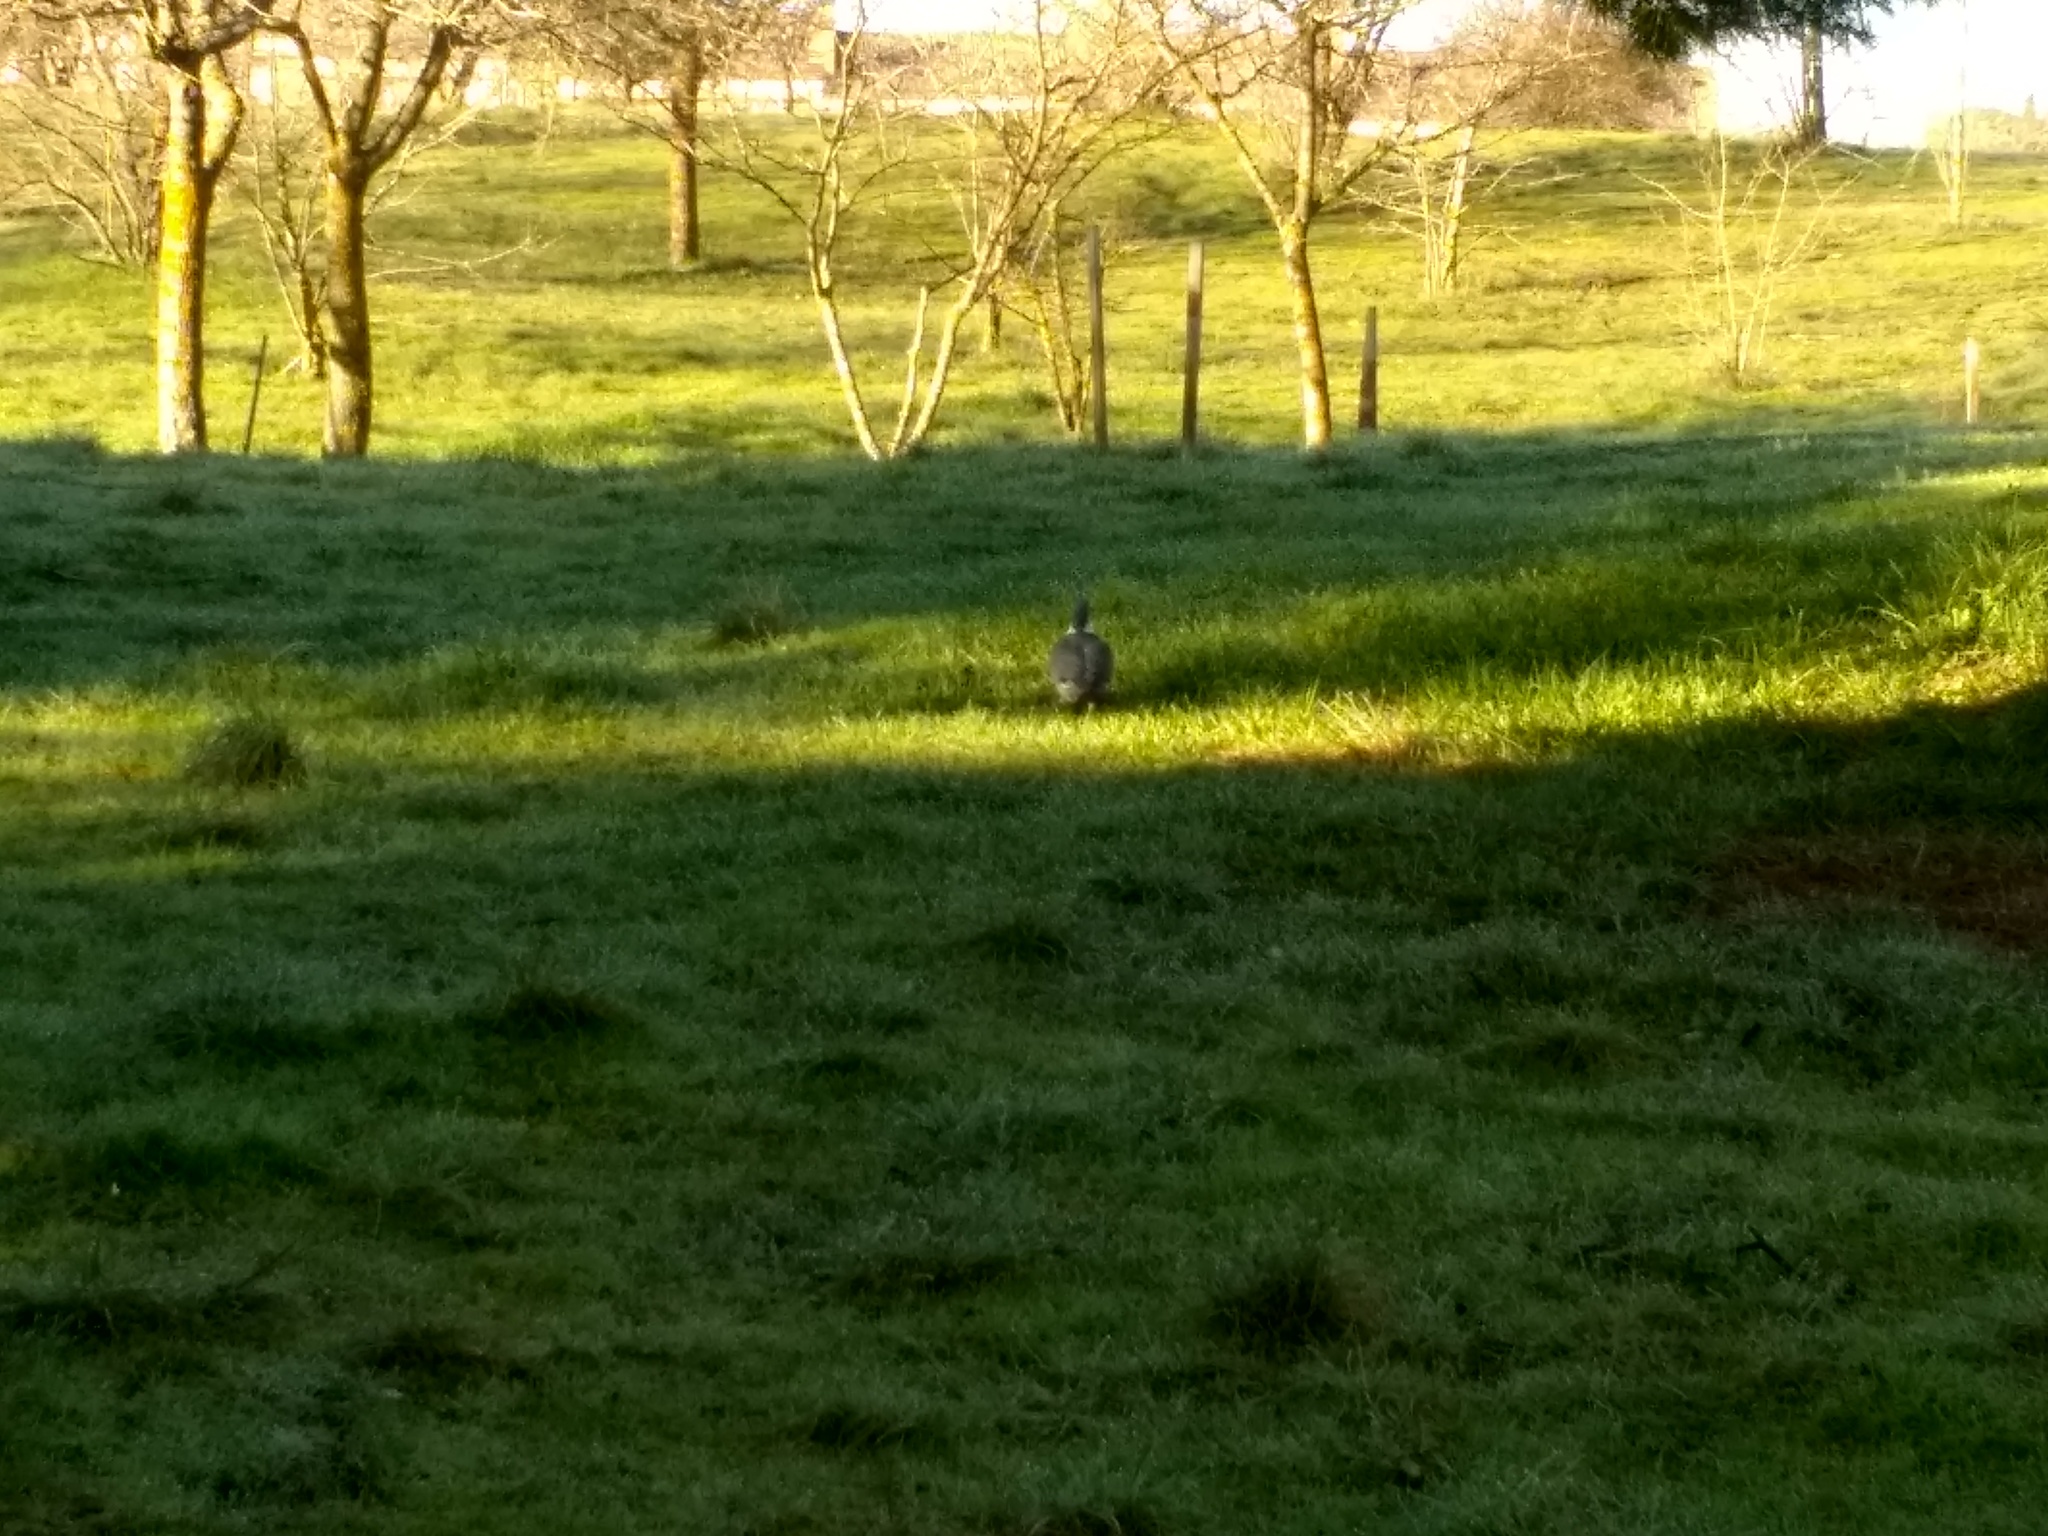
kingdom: Animalia
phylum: Chordata
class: Aves
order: Columbiformes
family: Columbidae
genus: Columba
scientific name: Columba palumbus
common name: Common wood pigeon
